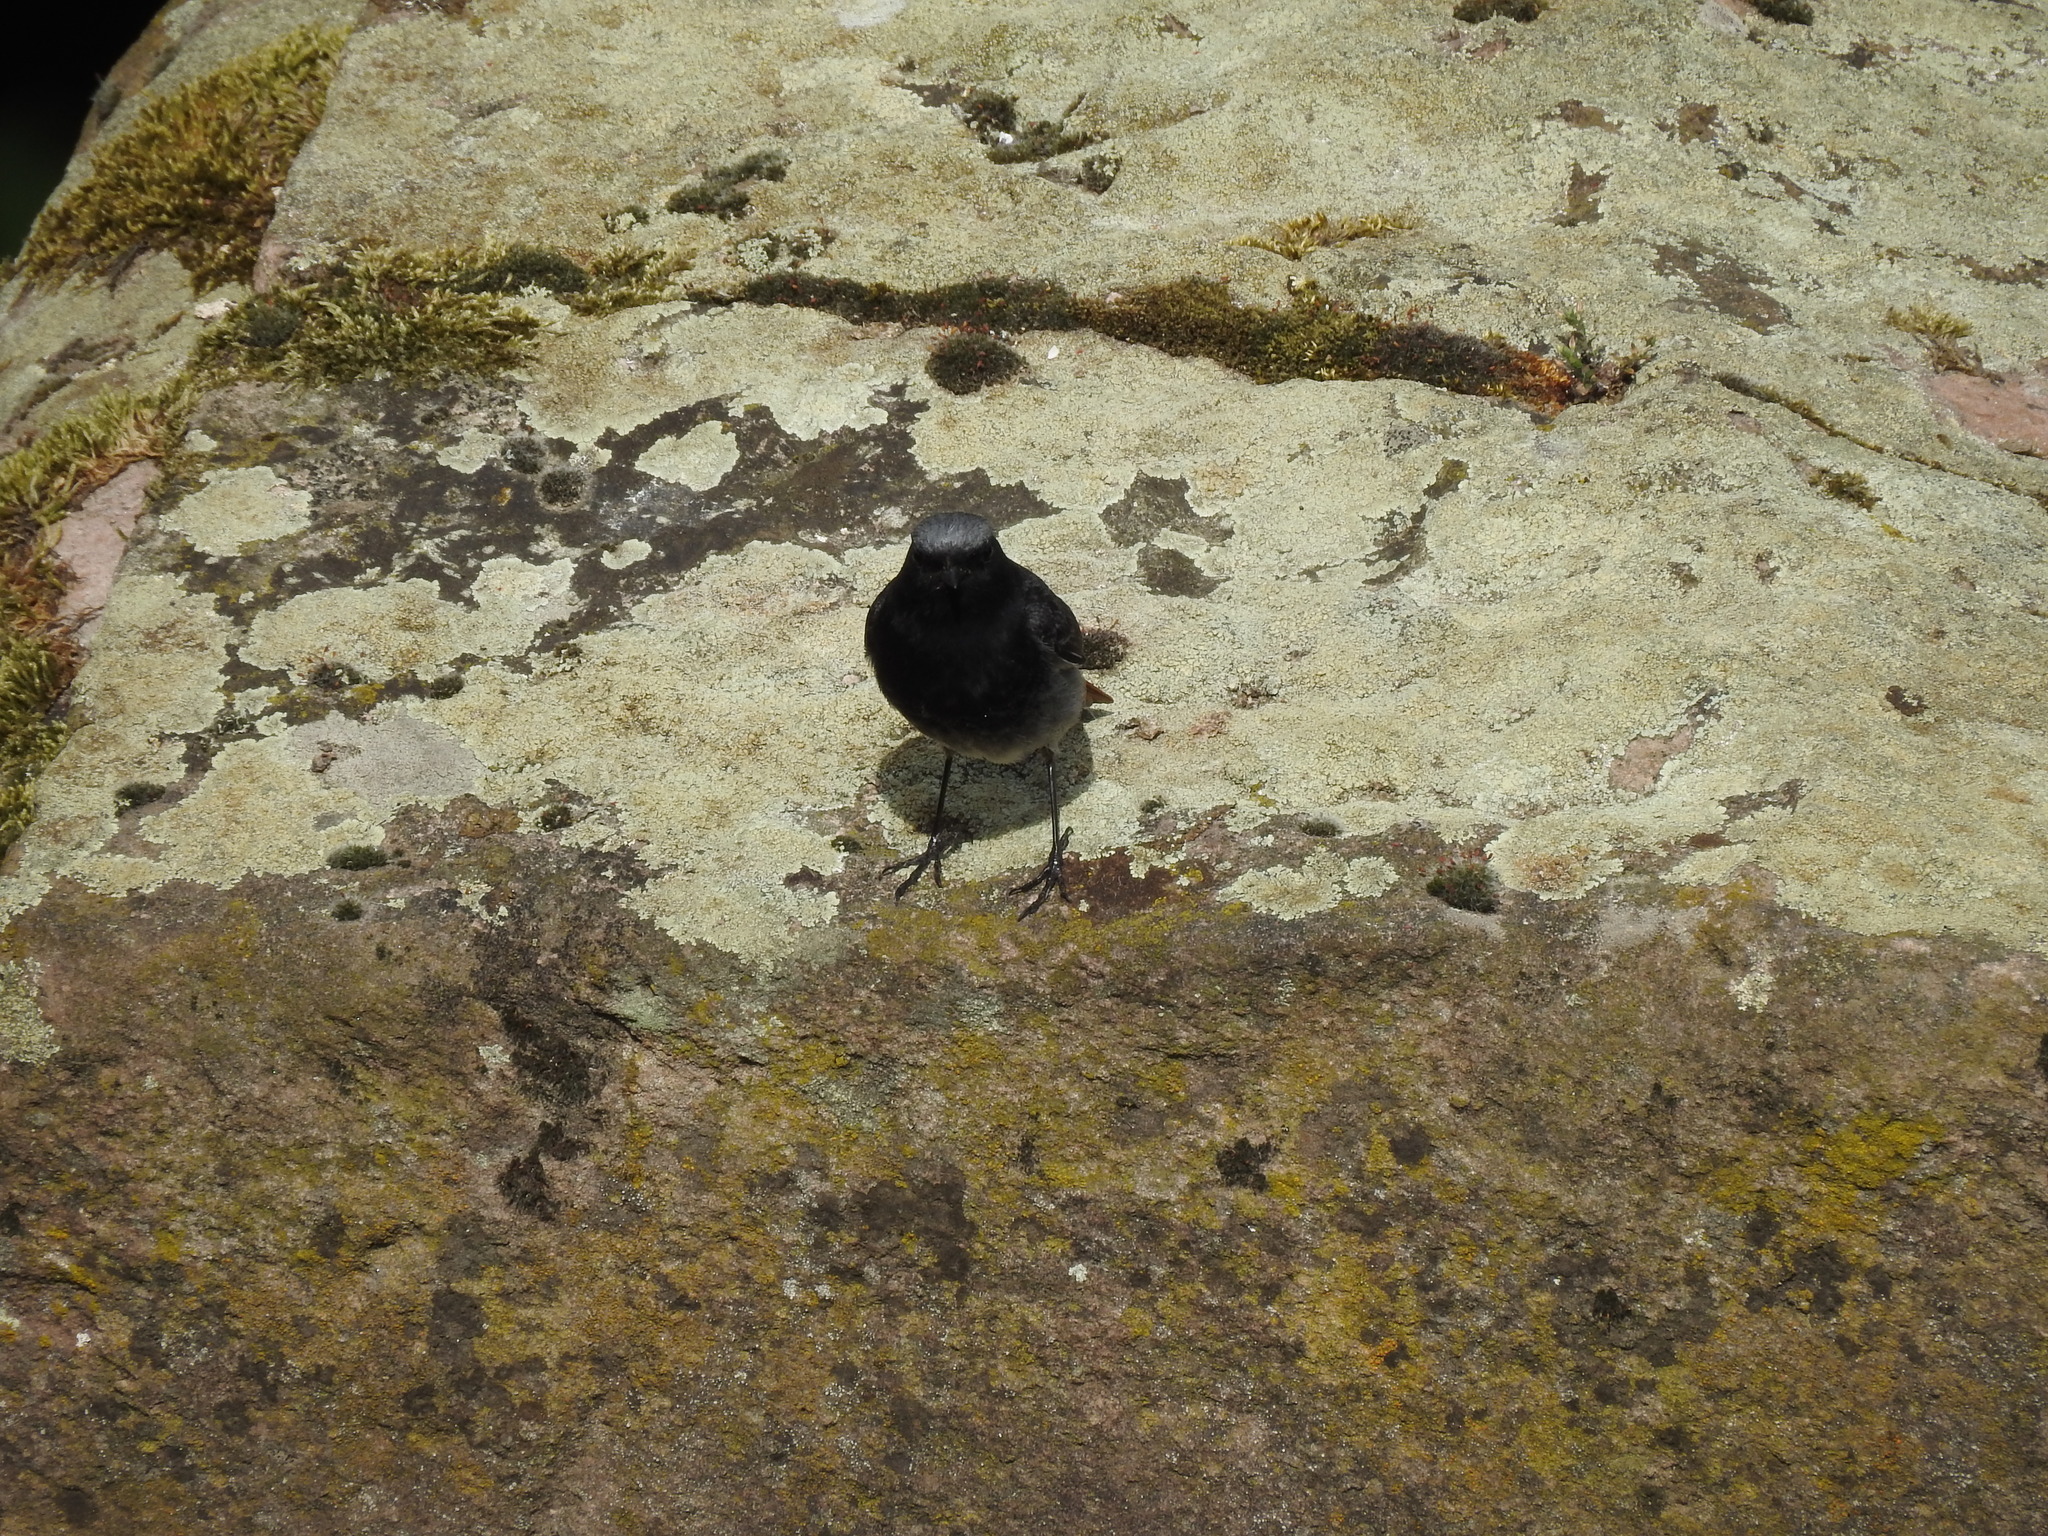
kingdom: Animalia
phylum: Chordata
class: Aves
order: Passeriformes
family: Muscicapidae
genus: Phoenicurus
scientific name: Phoenicurus ochruros
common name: Black redstart
